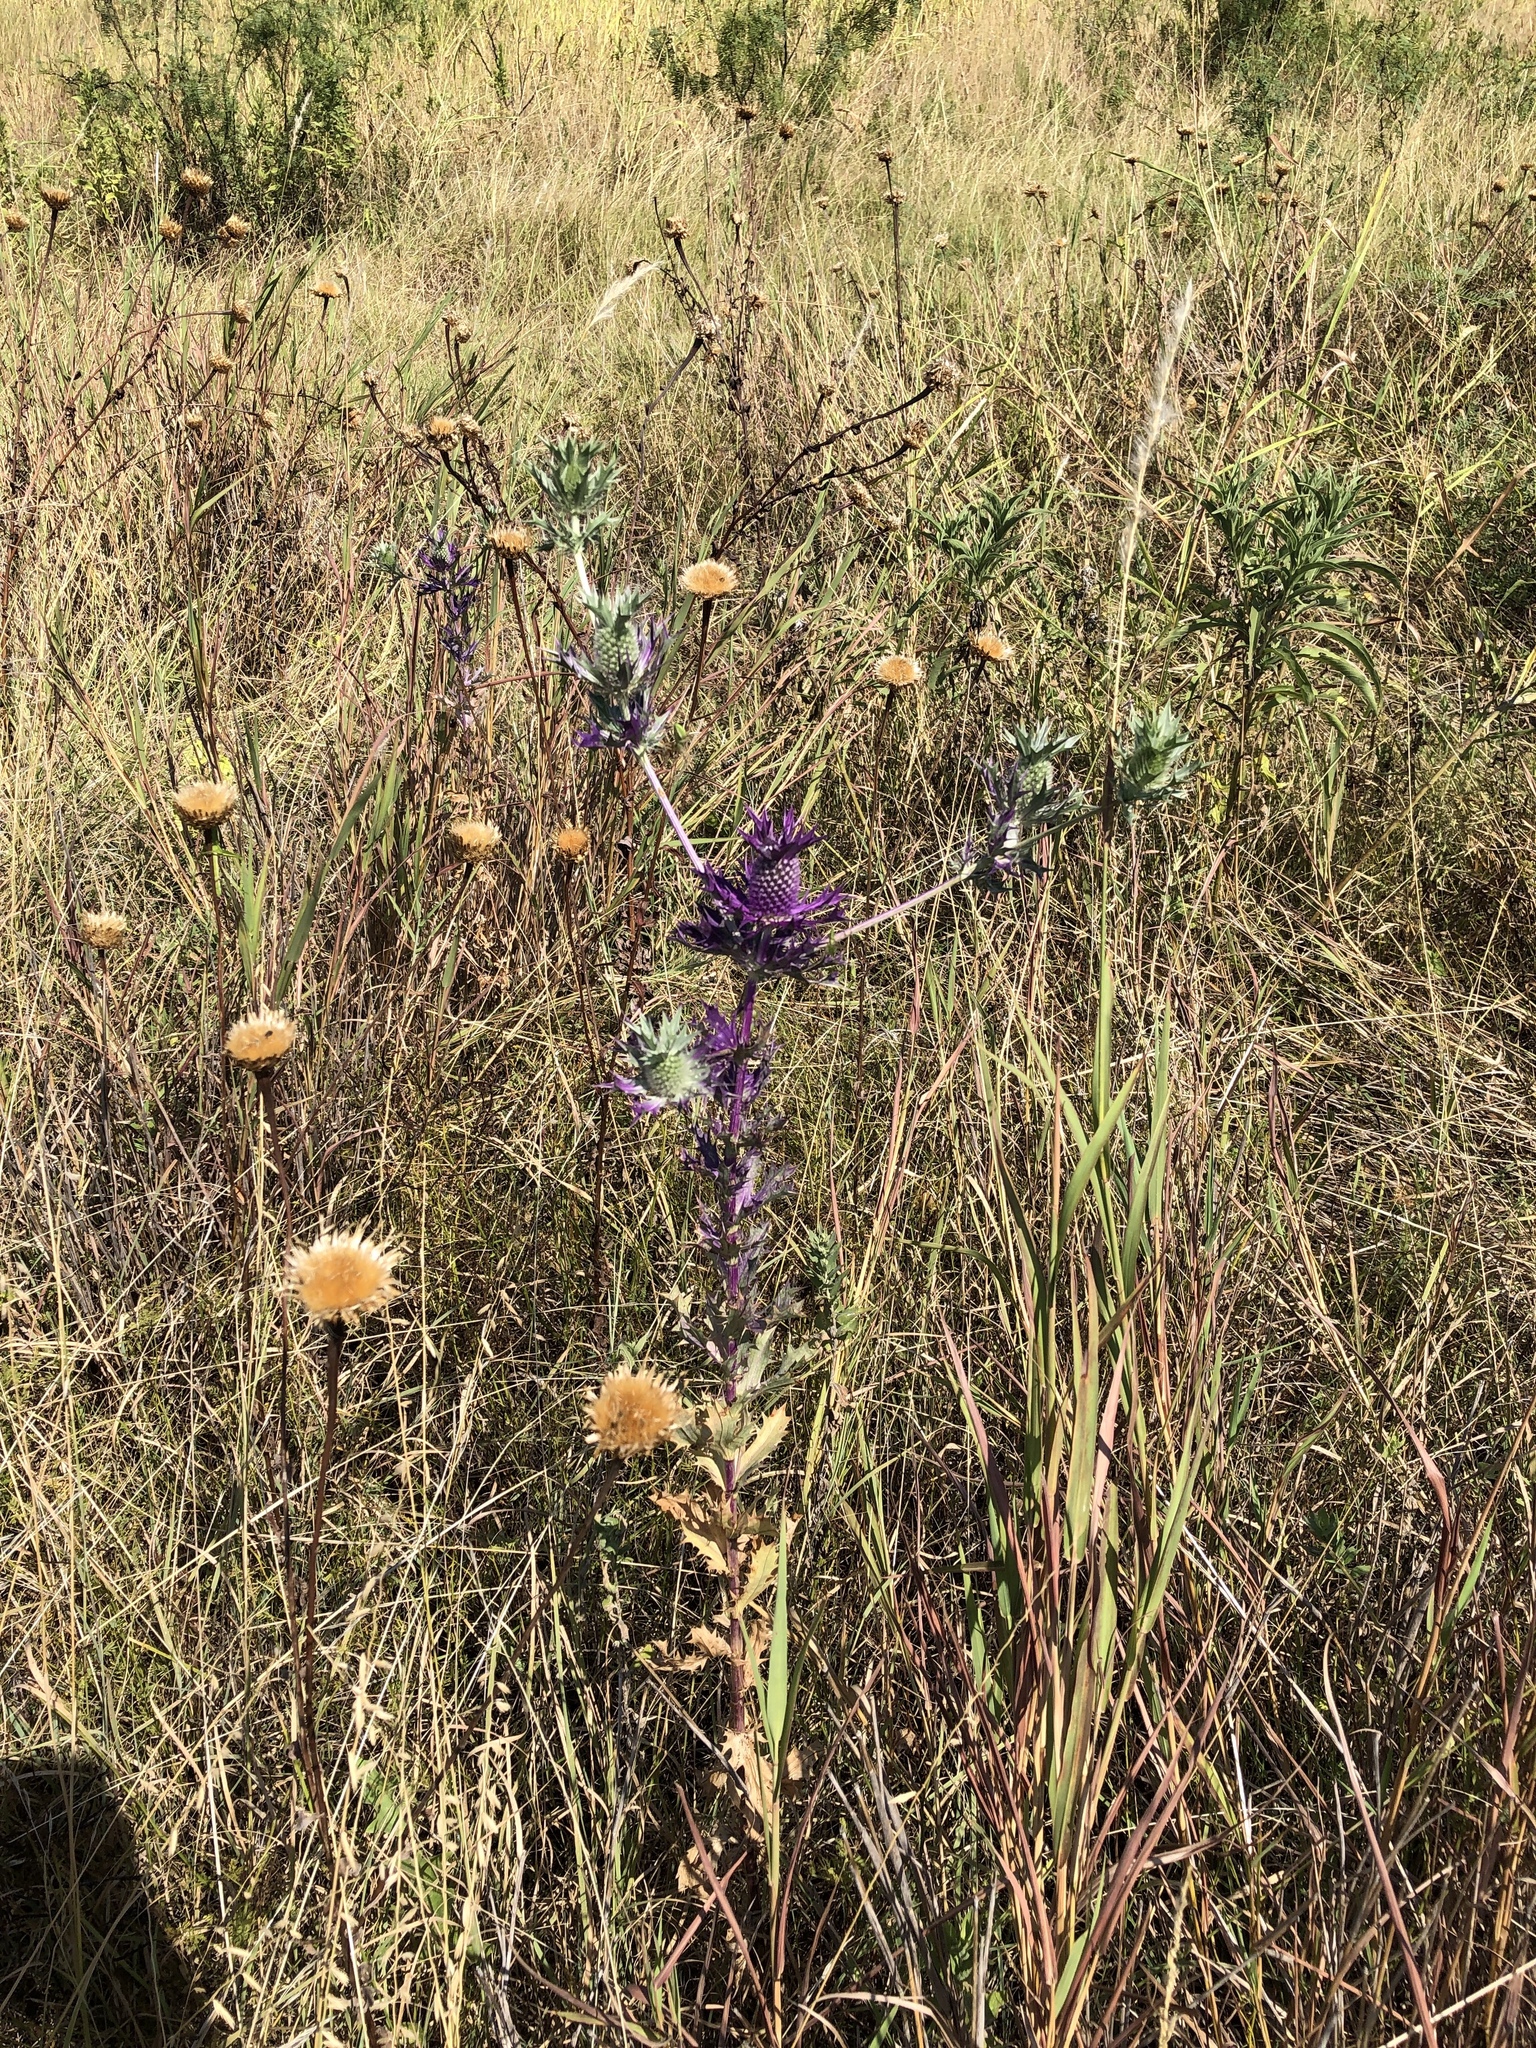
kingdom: Plantae
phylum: Tracheophyta
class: Magnoliopsida
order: Apiales
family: Apiaceae
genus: Eryngium
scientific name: Eryngium leavenworthii
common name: Leavenworth's eryngo
